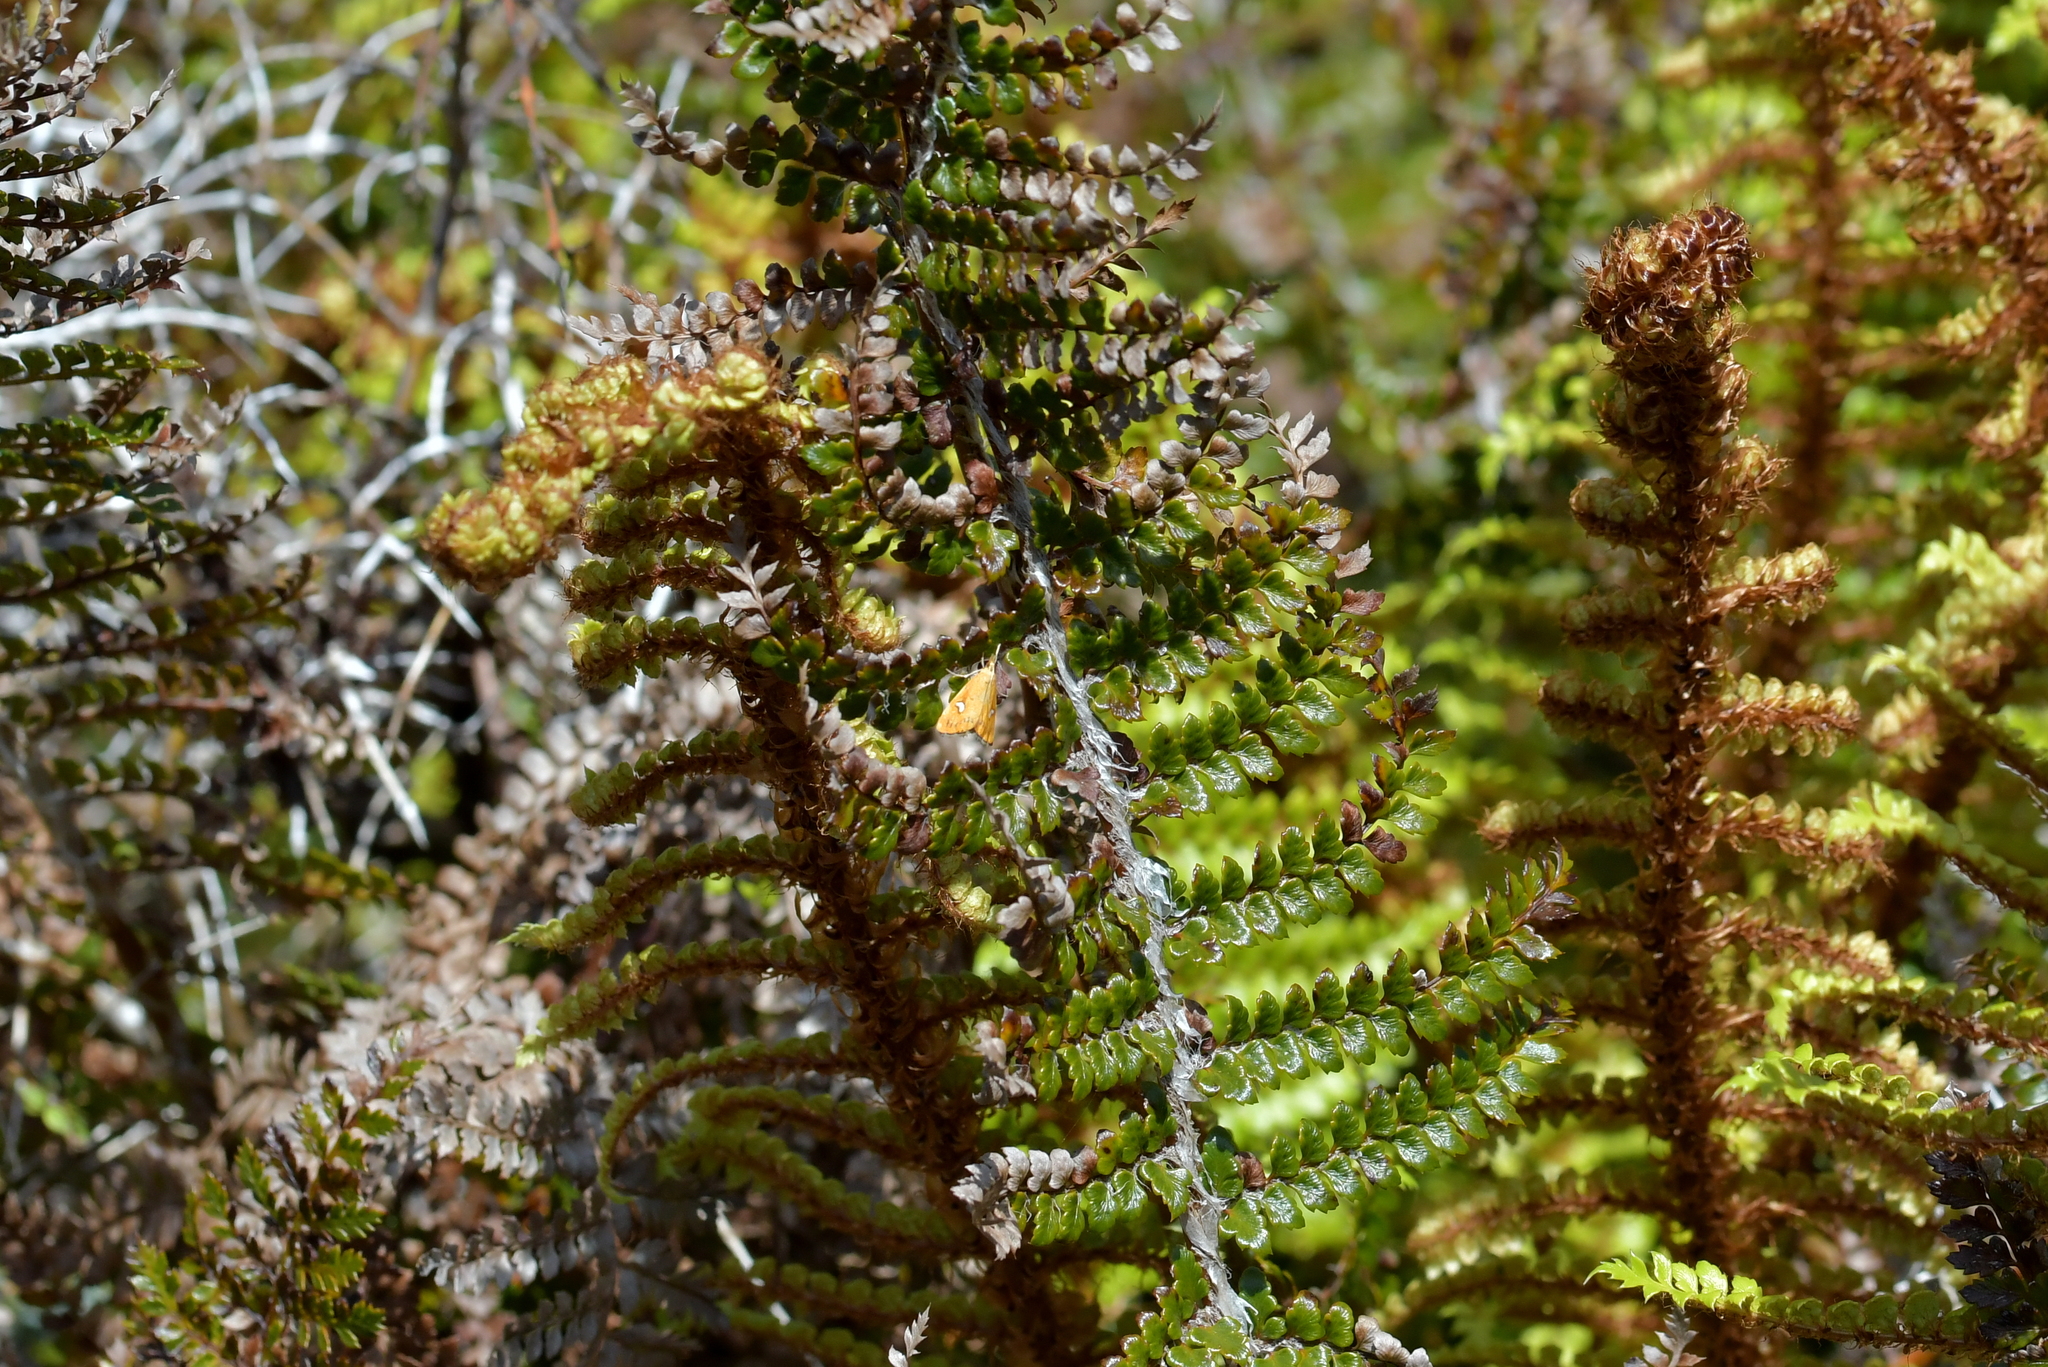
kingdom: Animalia
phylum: Arthropoda
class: Insecta
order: Lepidoptera
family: Crambidae
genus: Glaucocharis
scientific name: Glaucocharis leucoxantha
